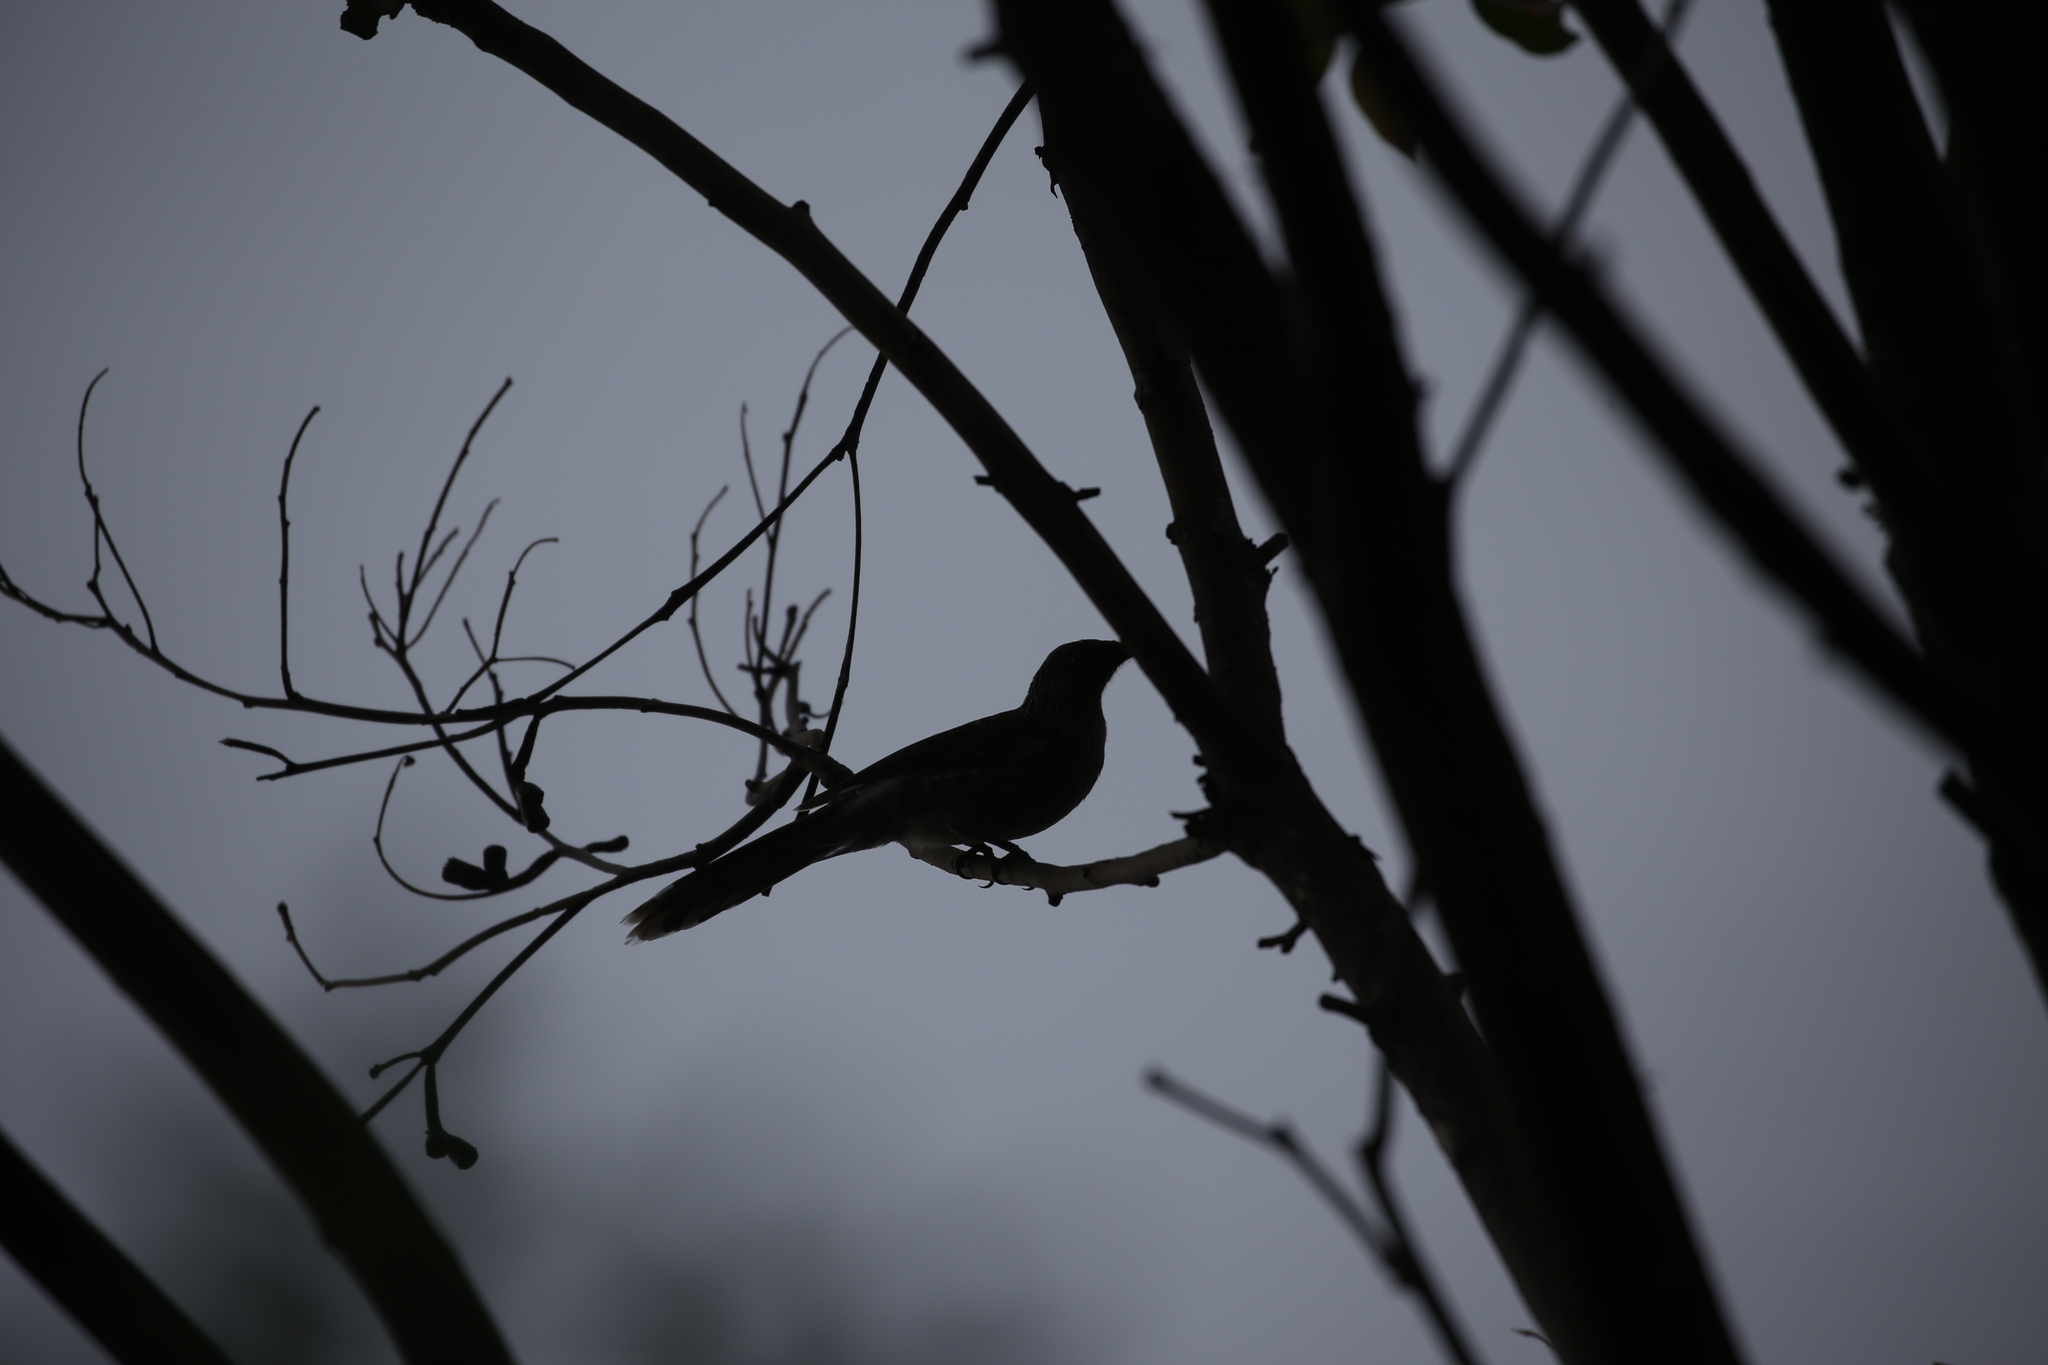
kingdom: Animalia
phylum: Chordata
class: Aves
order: Passeriformes
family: Meliphagidae
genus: Anthochaera
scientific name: Anthochaera chrysoptera
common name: Little wattlebird
